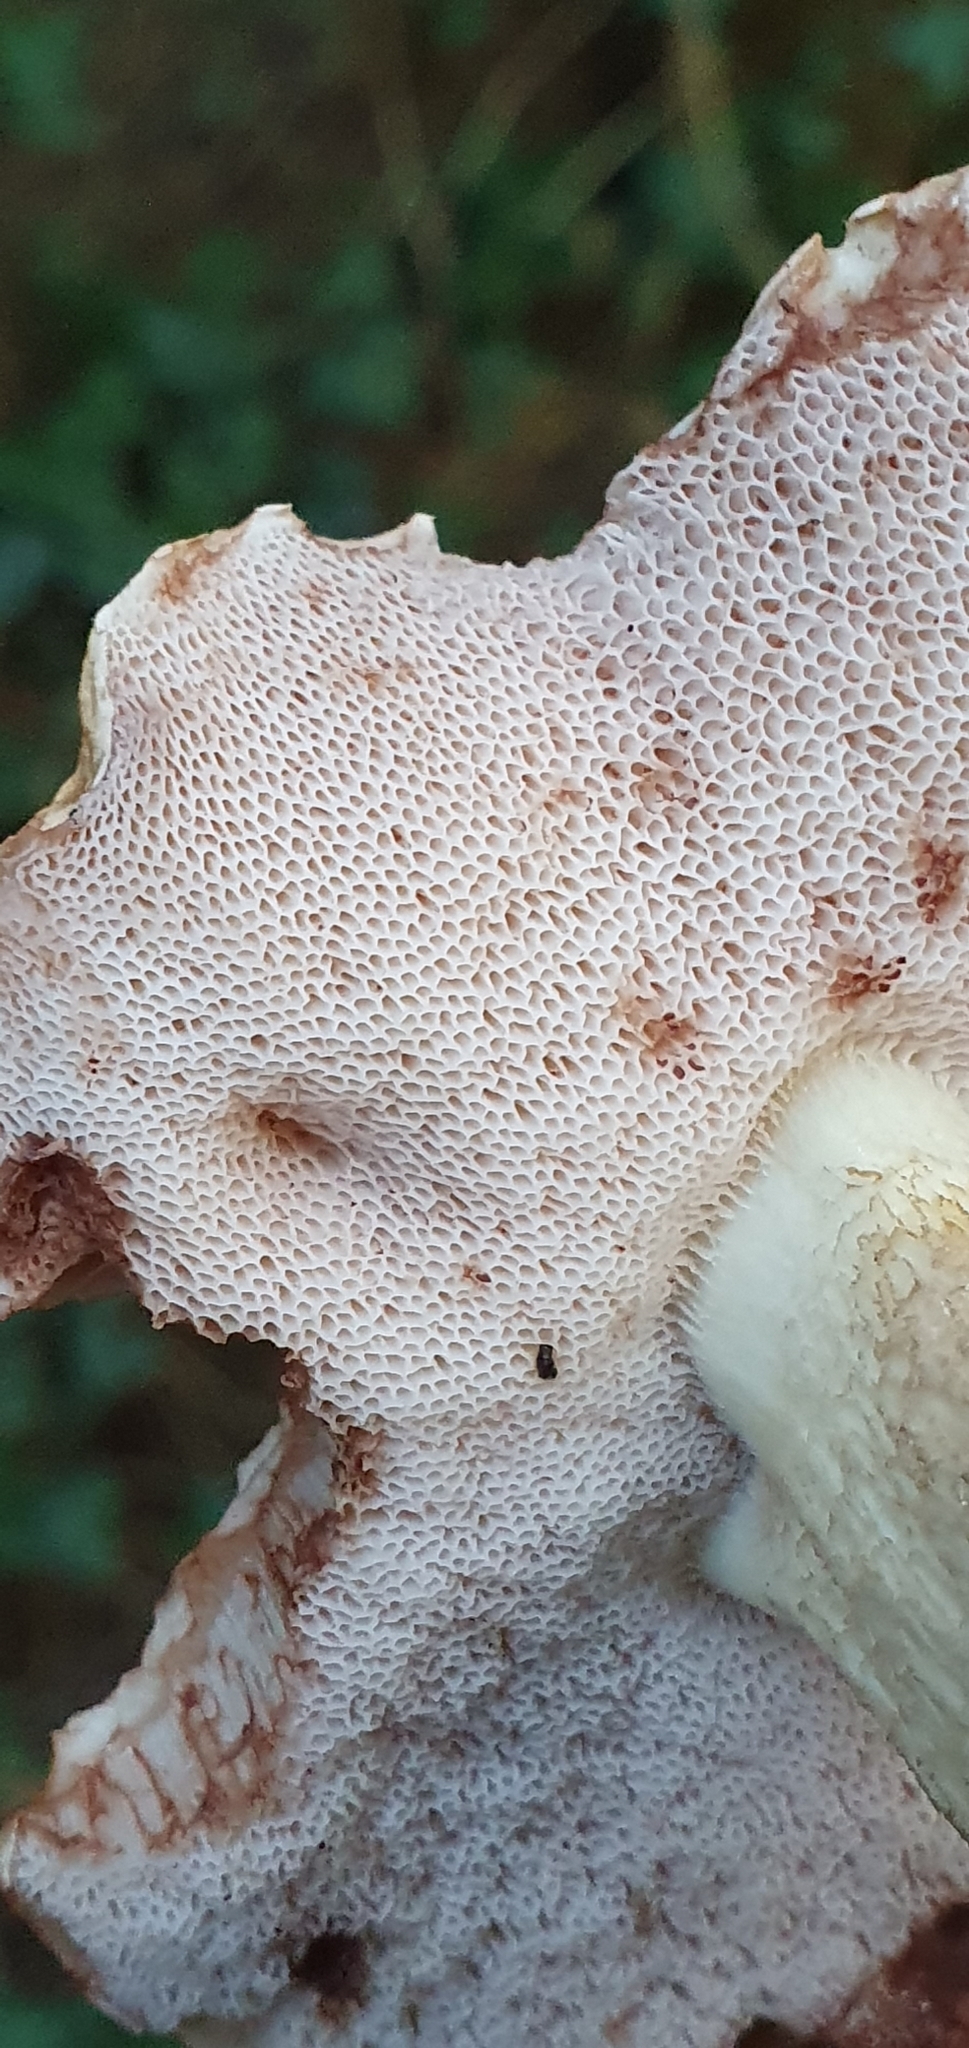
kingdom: Fungi
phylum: Basidiomycota
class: Agaricomycetes
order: Boletales
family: Boletaceae
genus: Tylopilus
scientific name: Tylopilus felleus
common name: Bitter bolete
